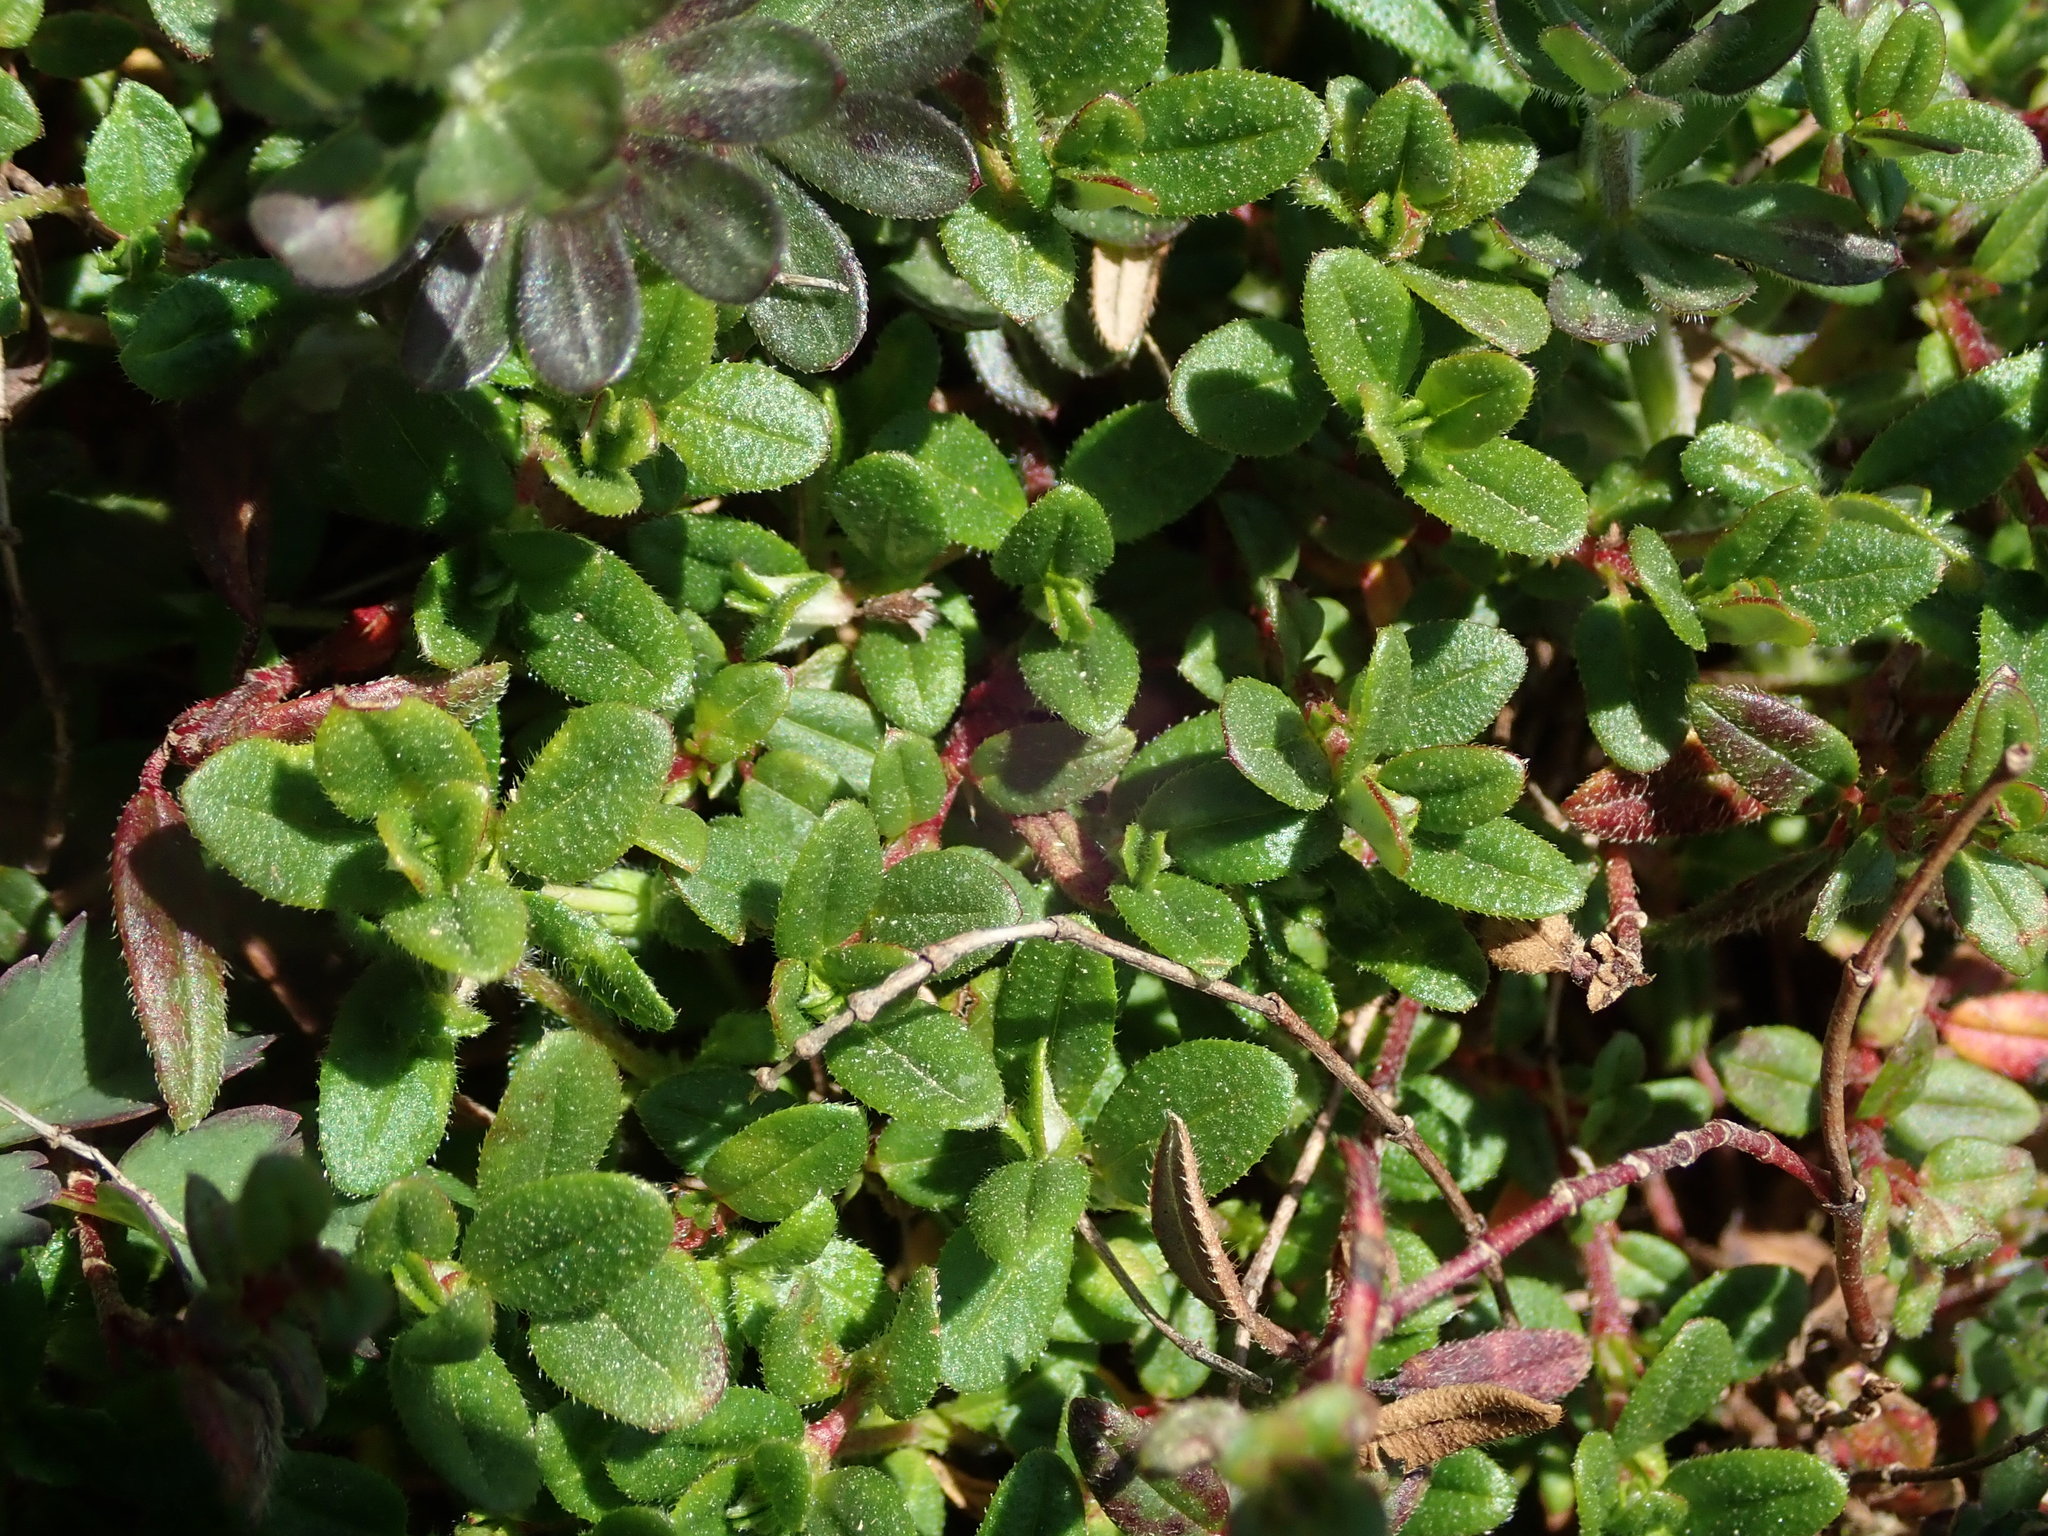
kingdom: Plantae
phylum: Tracheophyta
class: Magnoliopsida
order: Malvales
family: Cistaceae
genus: Helianthemum
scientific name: Helianthemum nummularium
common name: Common rock-rose
